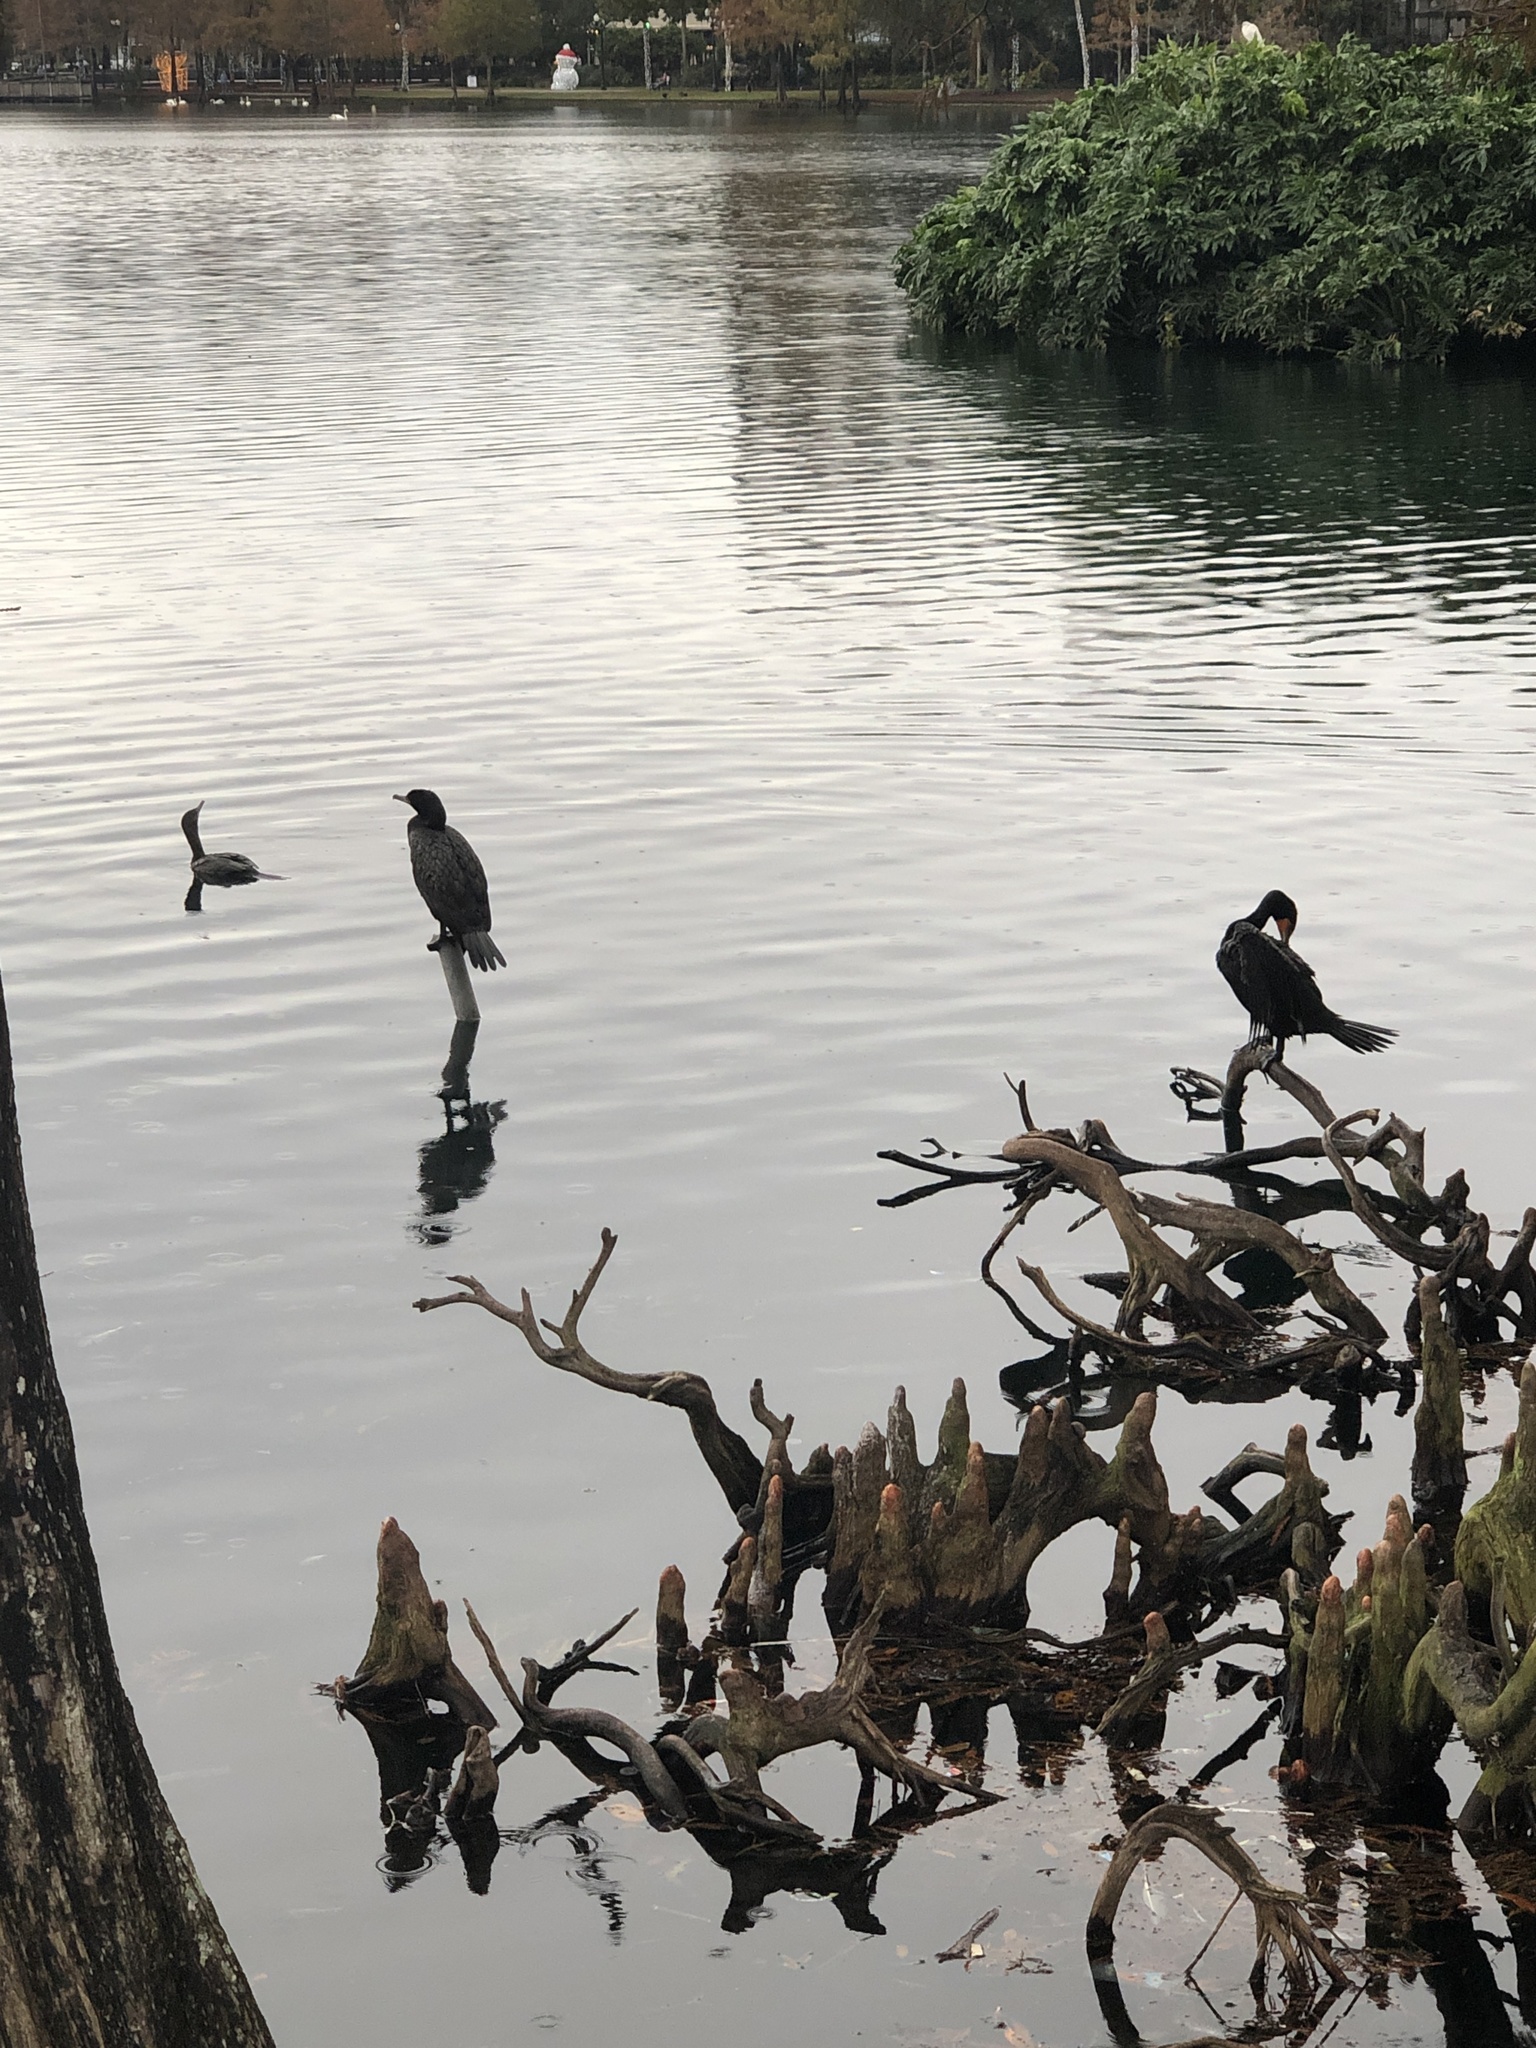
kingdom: Animalia
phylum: Chordata
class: Aves
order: Suliformes
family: Phalacrocoracidae
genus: Phalacrocorax
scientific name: Phalacrocorax auritus
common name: Double-crested cormorant
